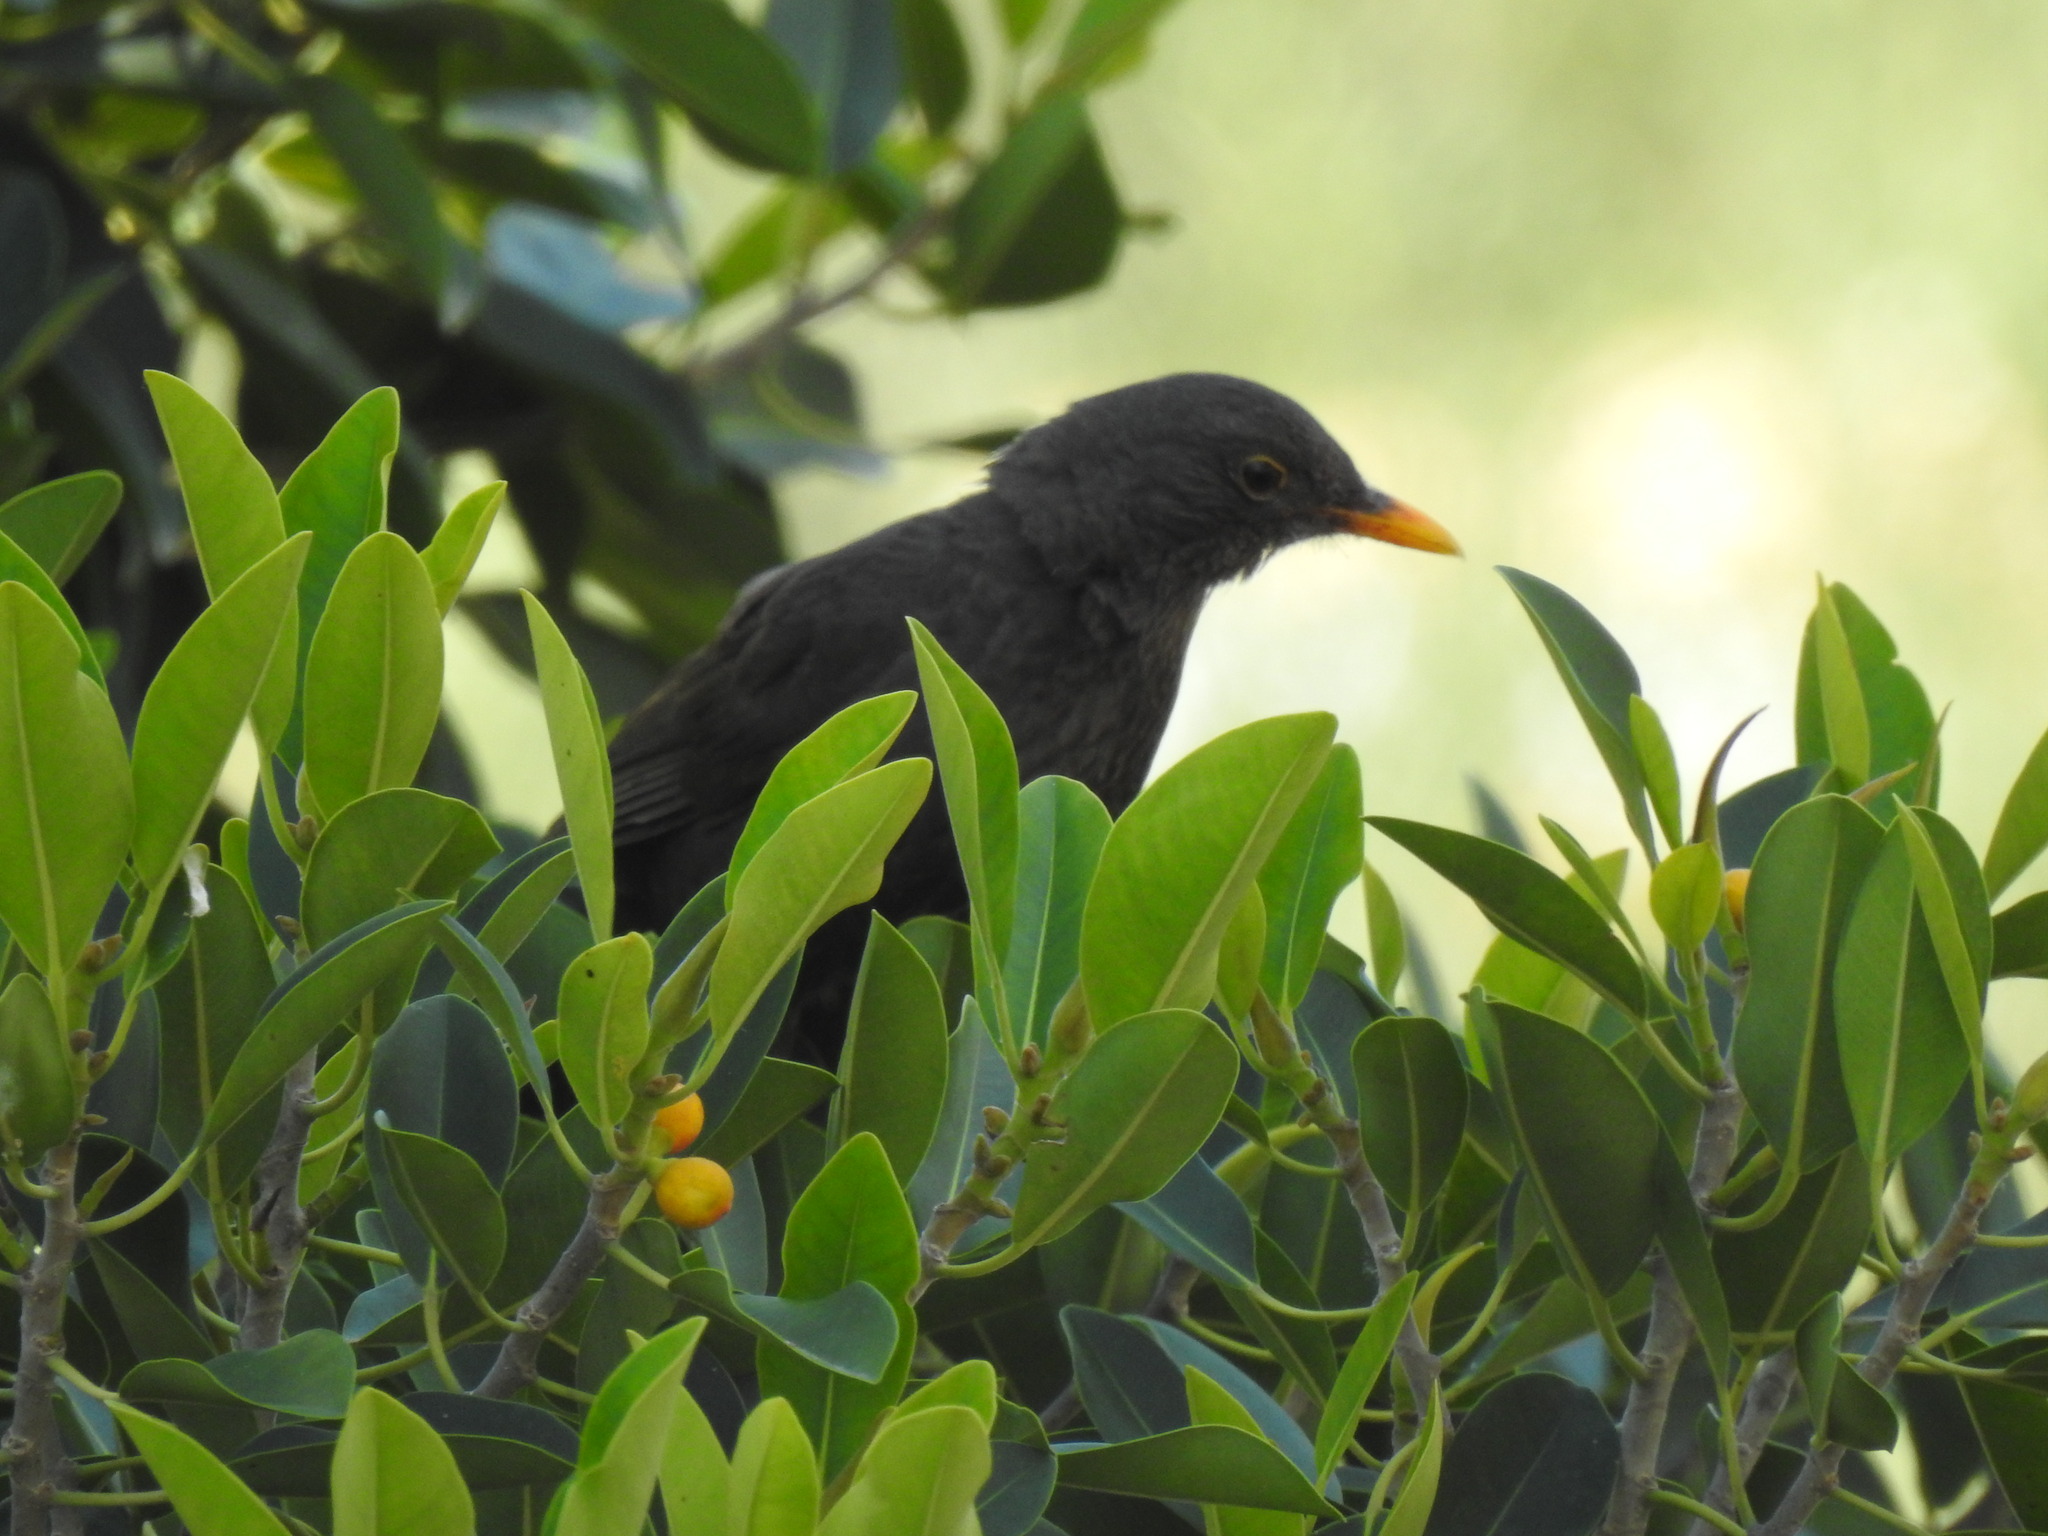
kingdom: Animalia
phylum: Chordata
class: Aves
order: Passeriformes
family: Turdidae
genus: Turdus
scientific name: Turdus merula
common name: Common blackbird
